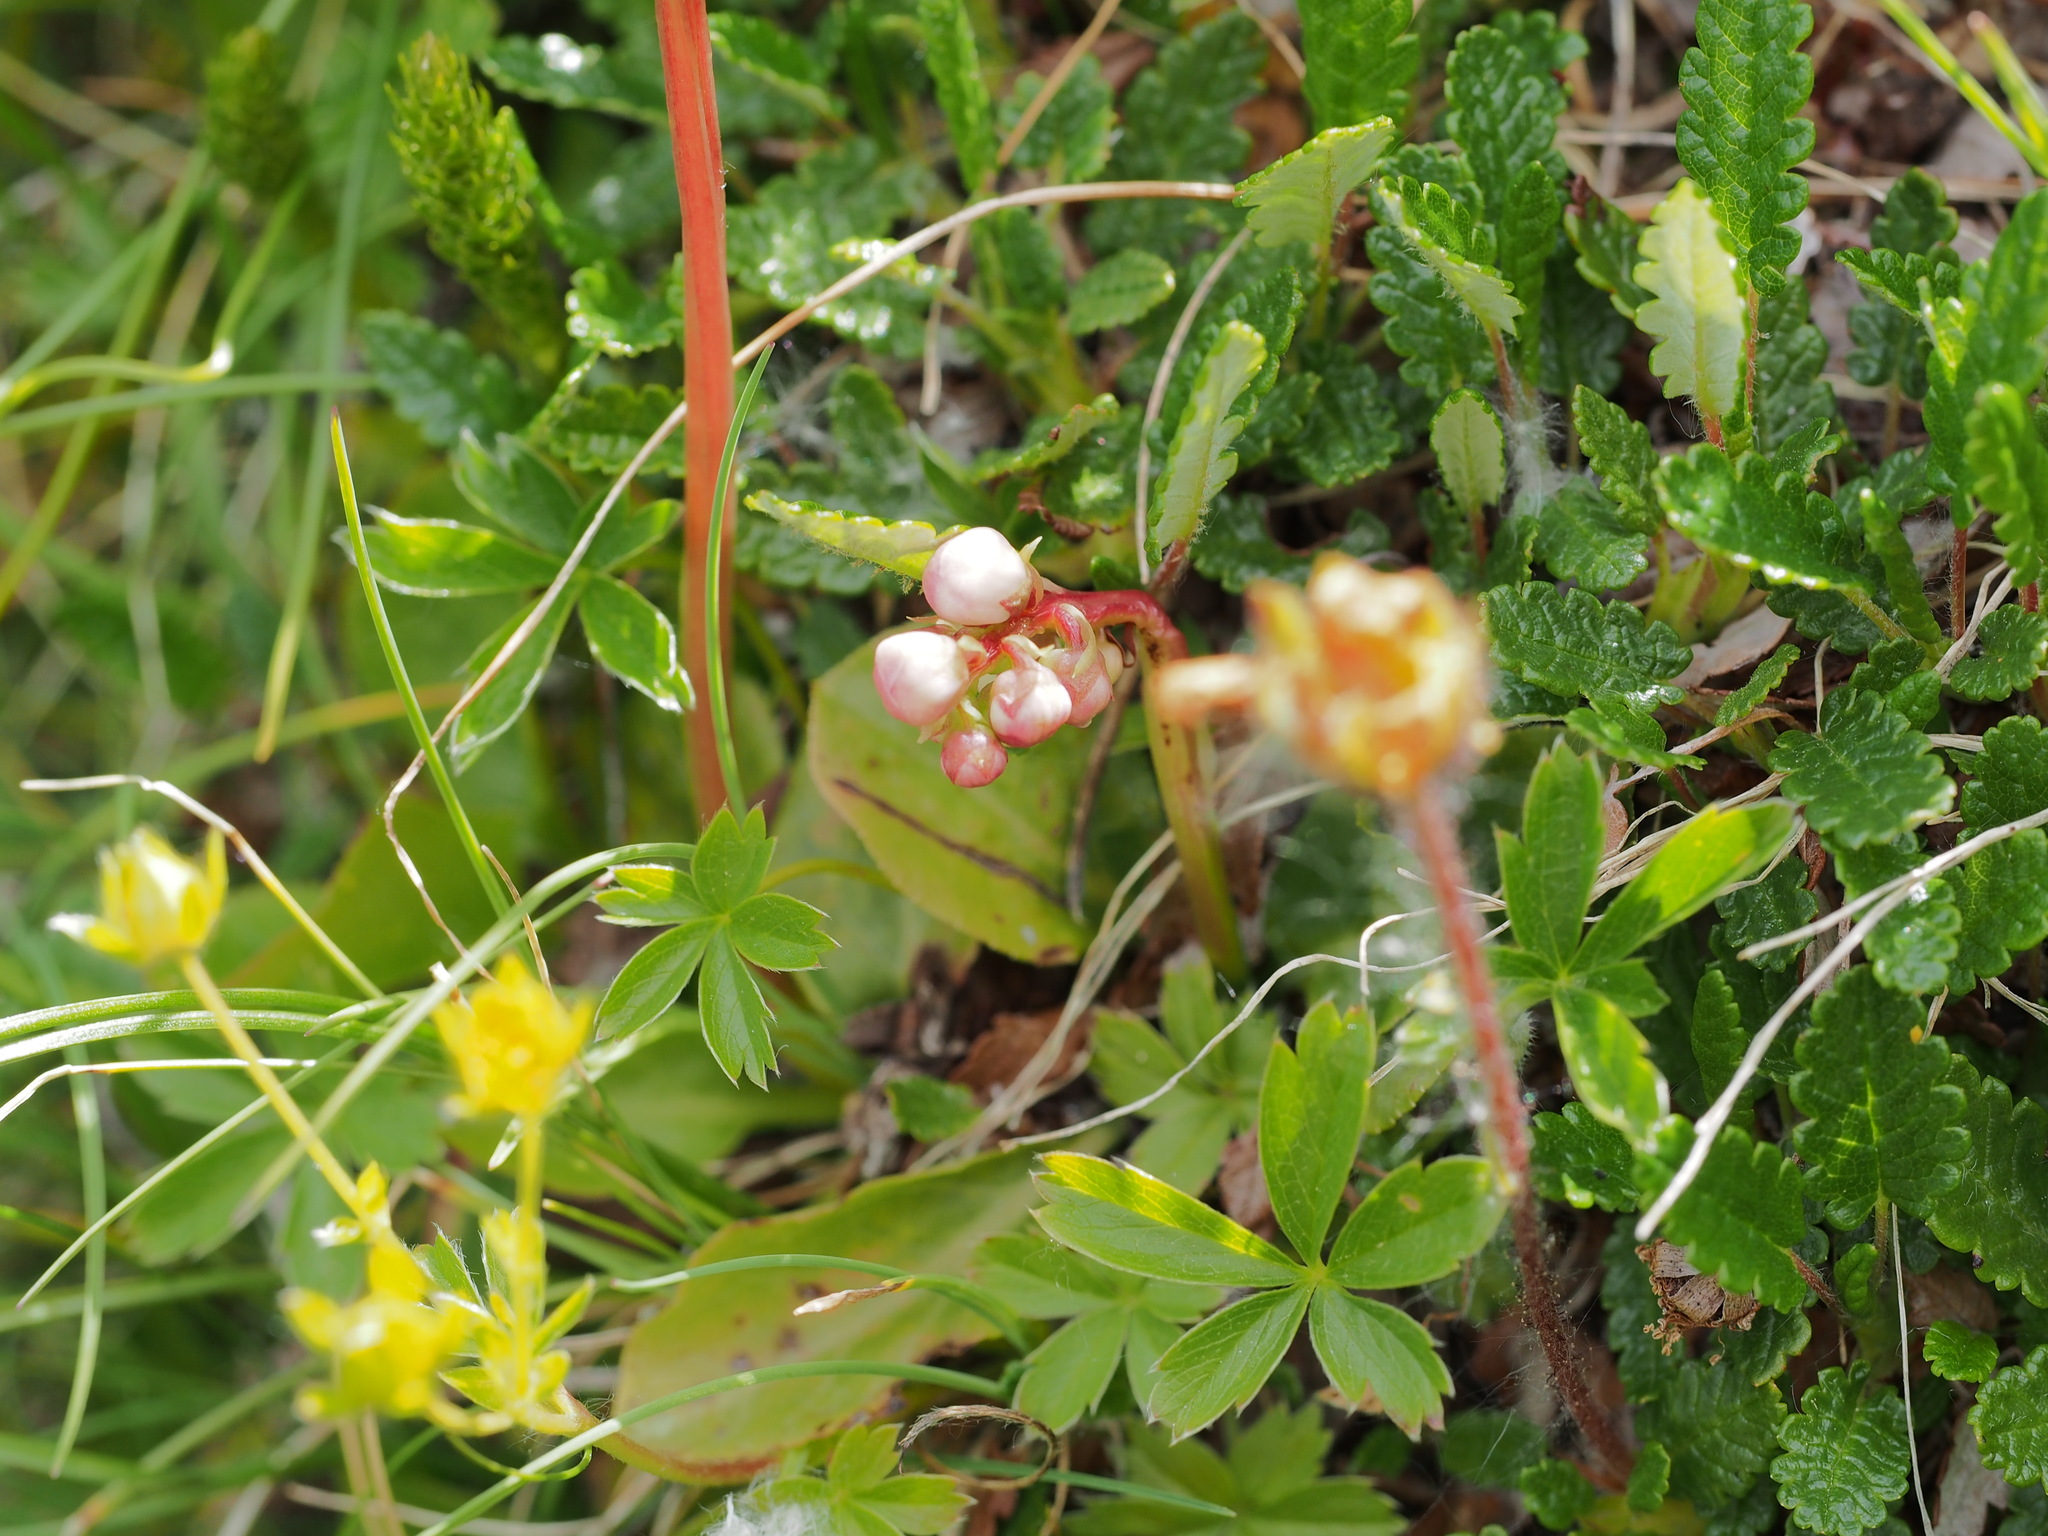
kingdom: Plantae
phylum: Tracheophyta
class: Magnoliopsida
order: Ericales
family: Ericaceae
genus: Pyrola
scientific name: Pyrola minor
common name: Common wintergreen
